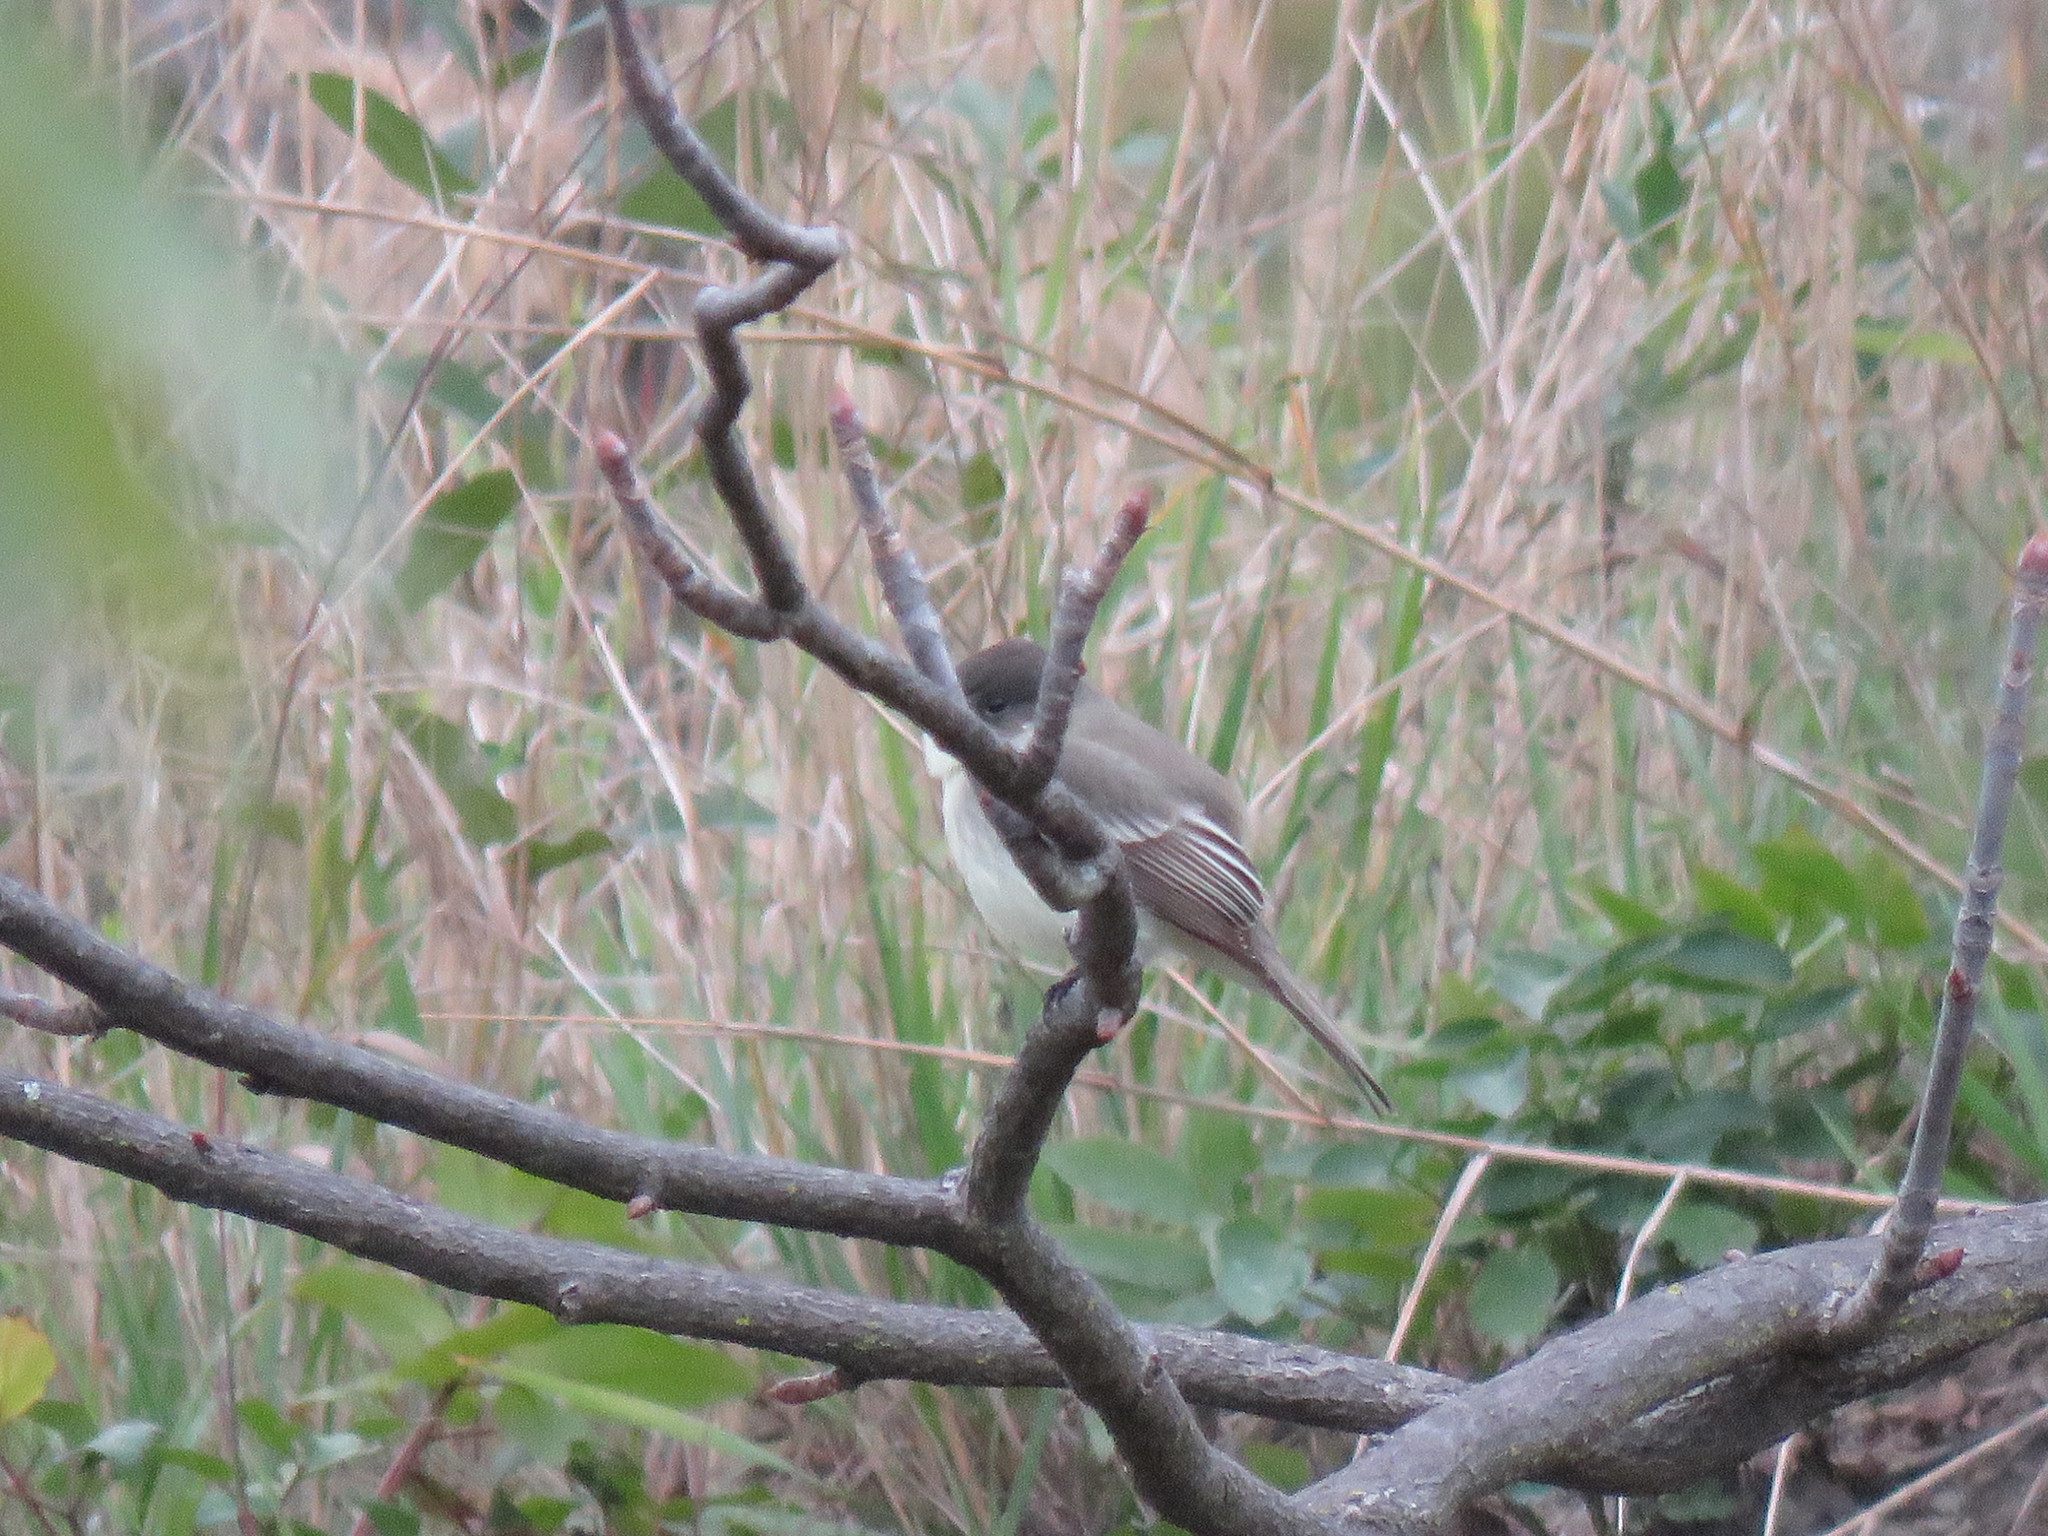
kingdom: Animalia
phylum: Chordata
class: Aves
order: Passeriformes
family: Tyrannidae
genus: Sayornis
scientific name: Sayornis phoebe
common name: Eastern phoebe
